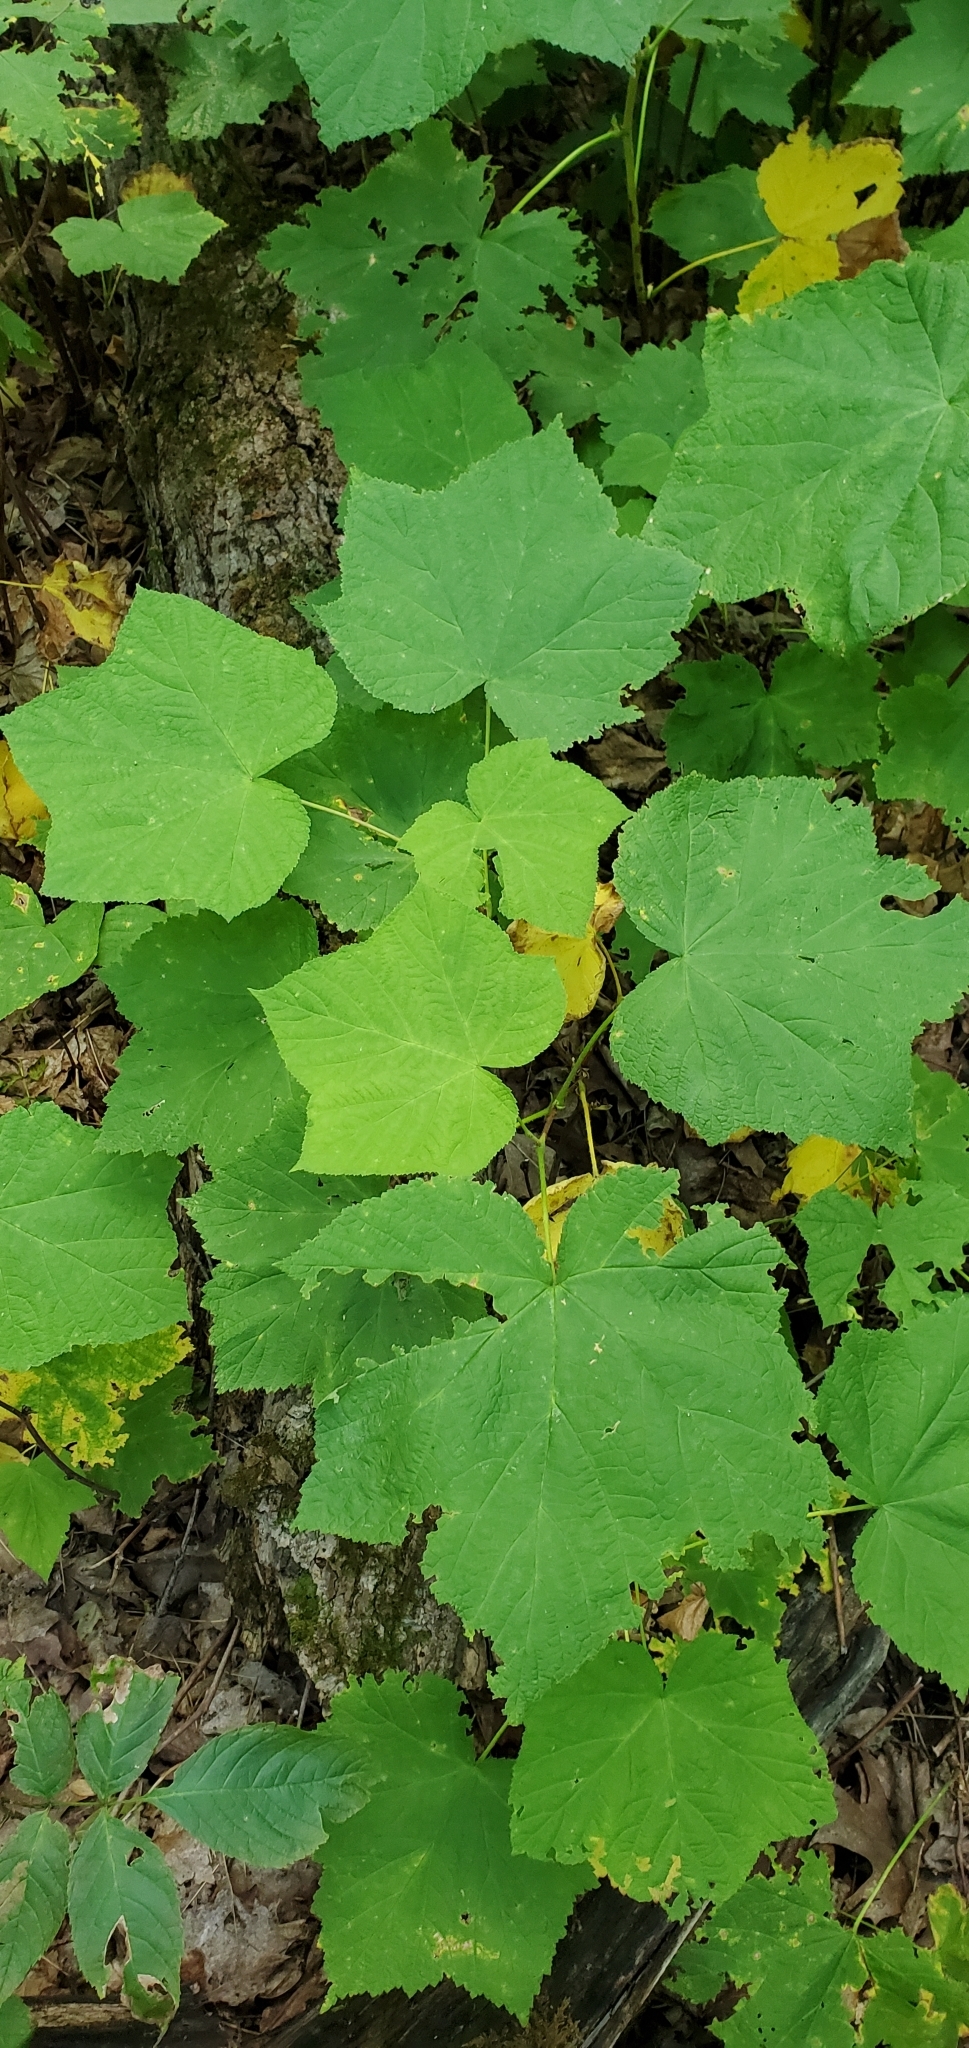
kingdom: Plantae
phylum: Tracheophyta
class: Magnoliopsida
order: Rosales
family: Rosaceae
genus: Rubus
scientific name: Rubus parviflorus
